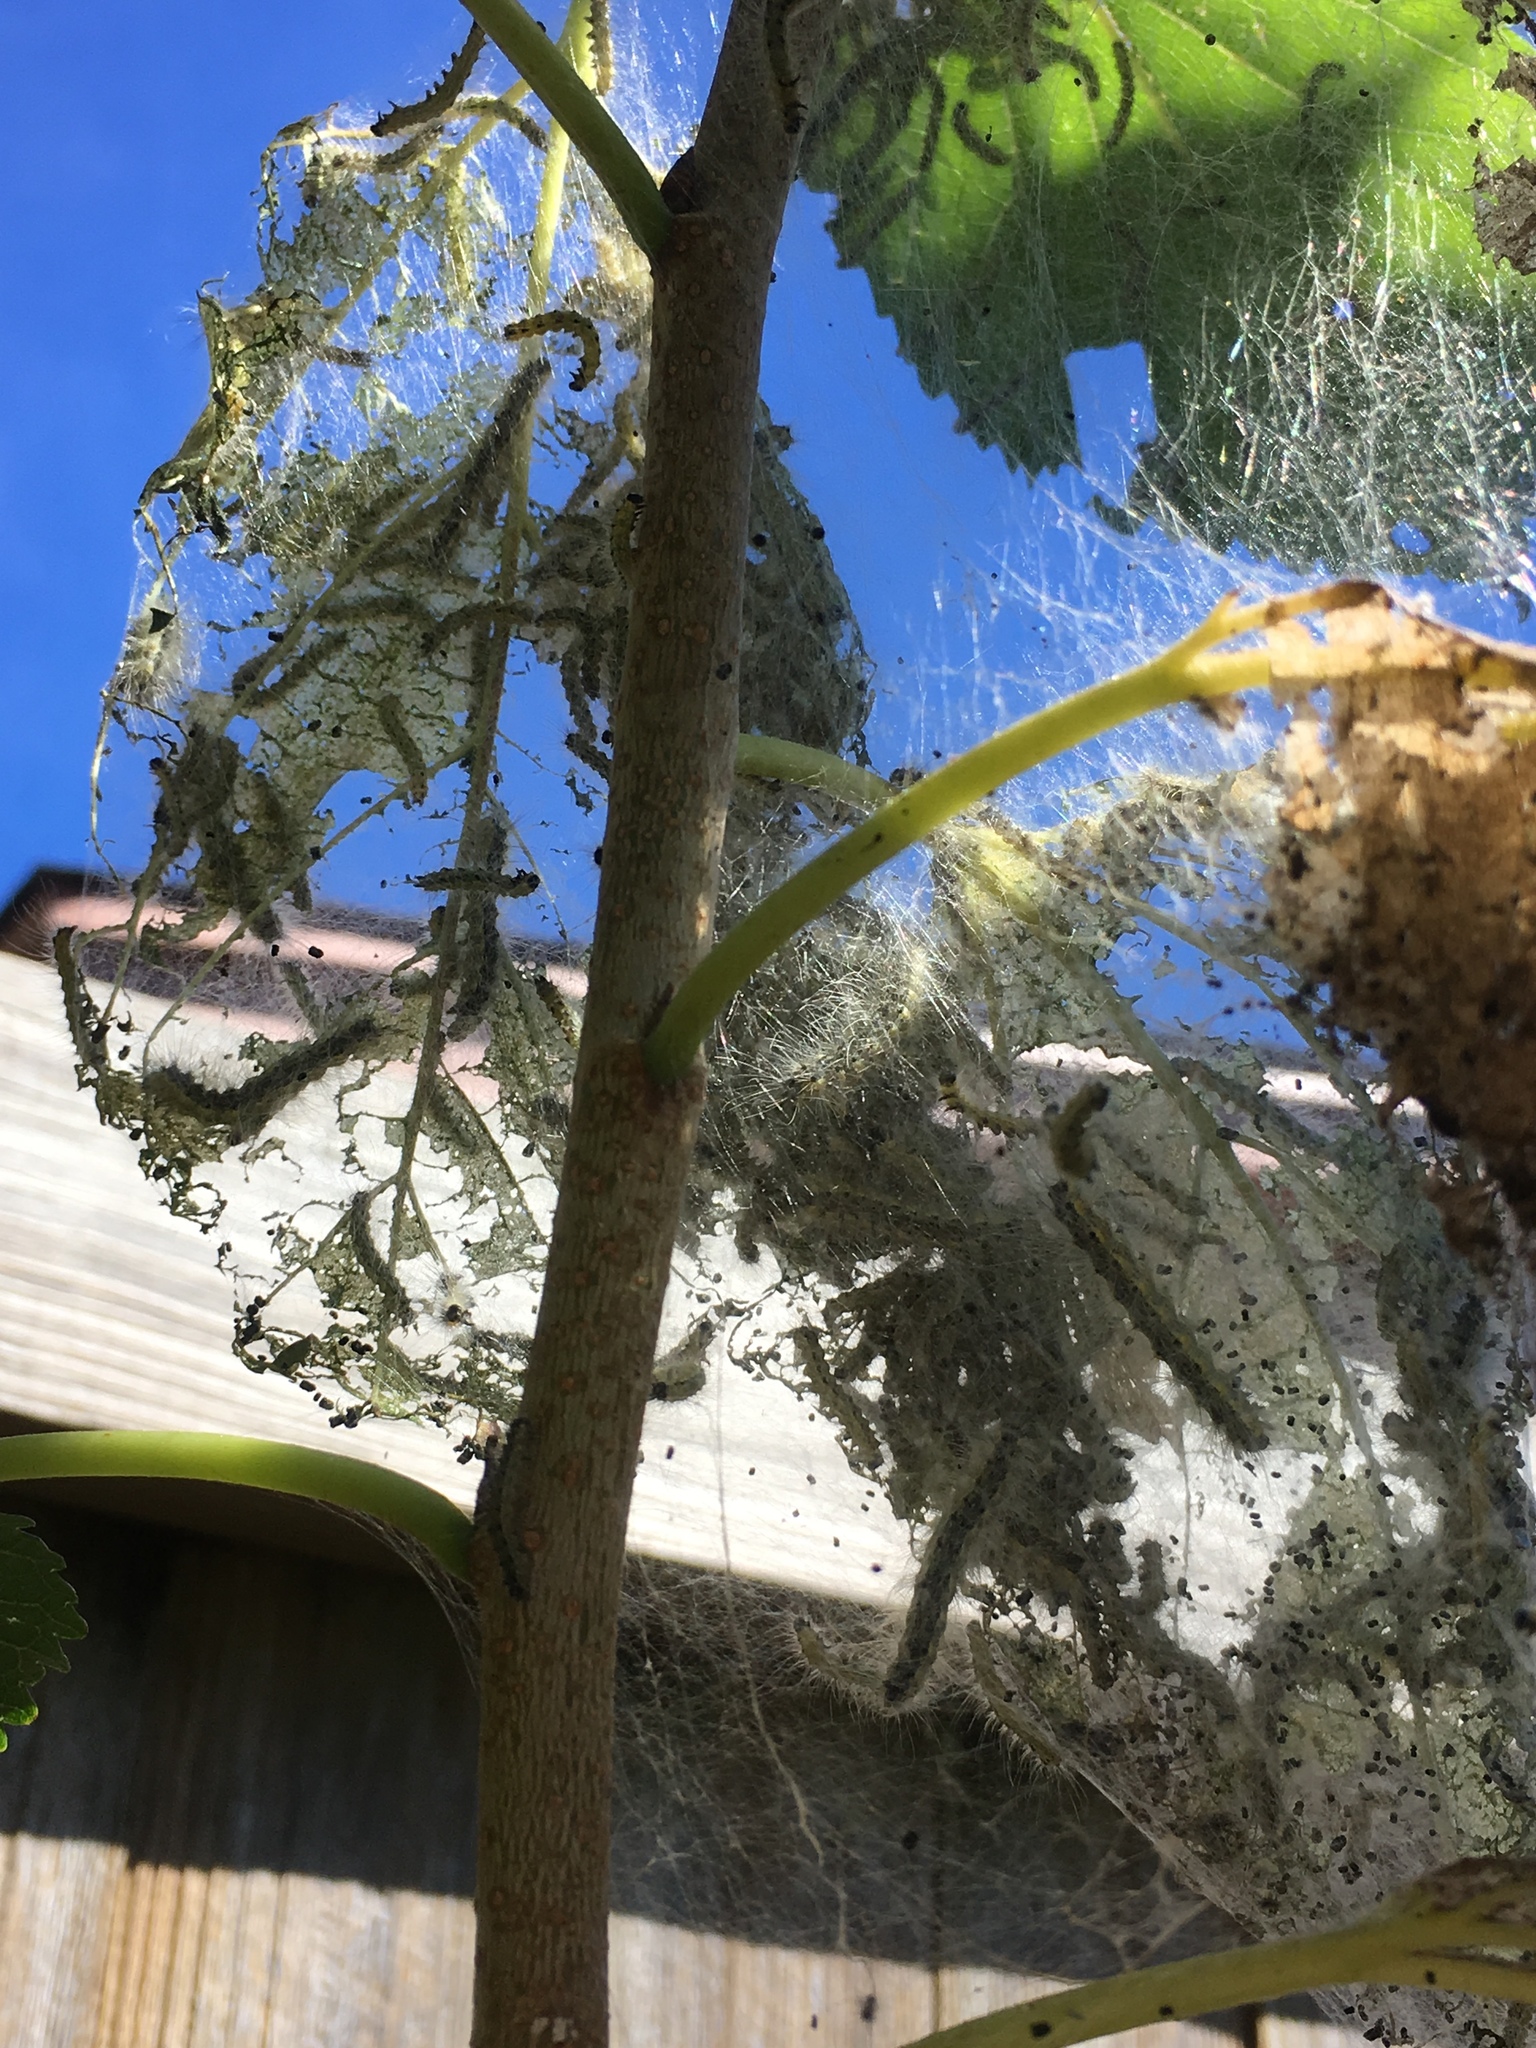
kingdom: Animalia
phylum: Arthropoda
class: Insecta
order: Lepidoptera
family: Erebidae
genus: Hyphantria
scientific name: Hyphantria cunea
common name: American white moth
